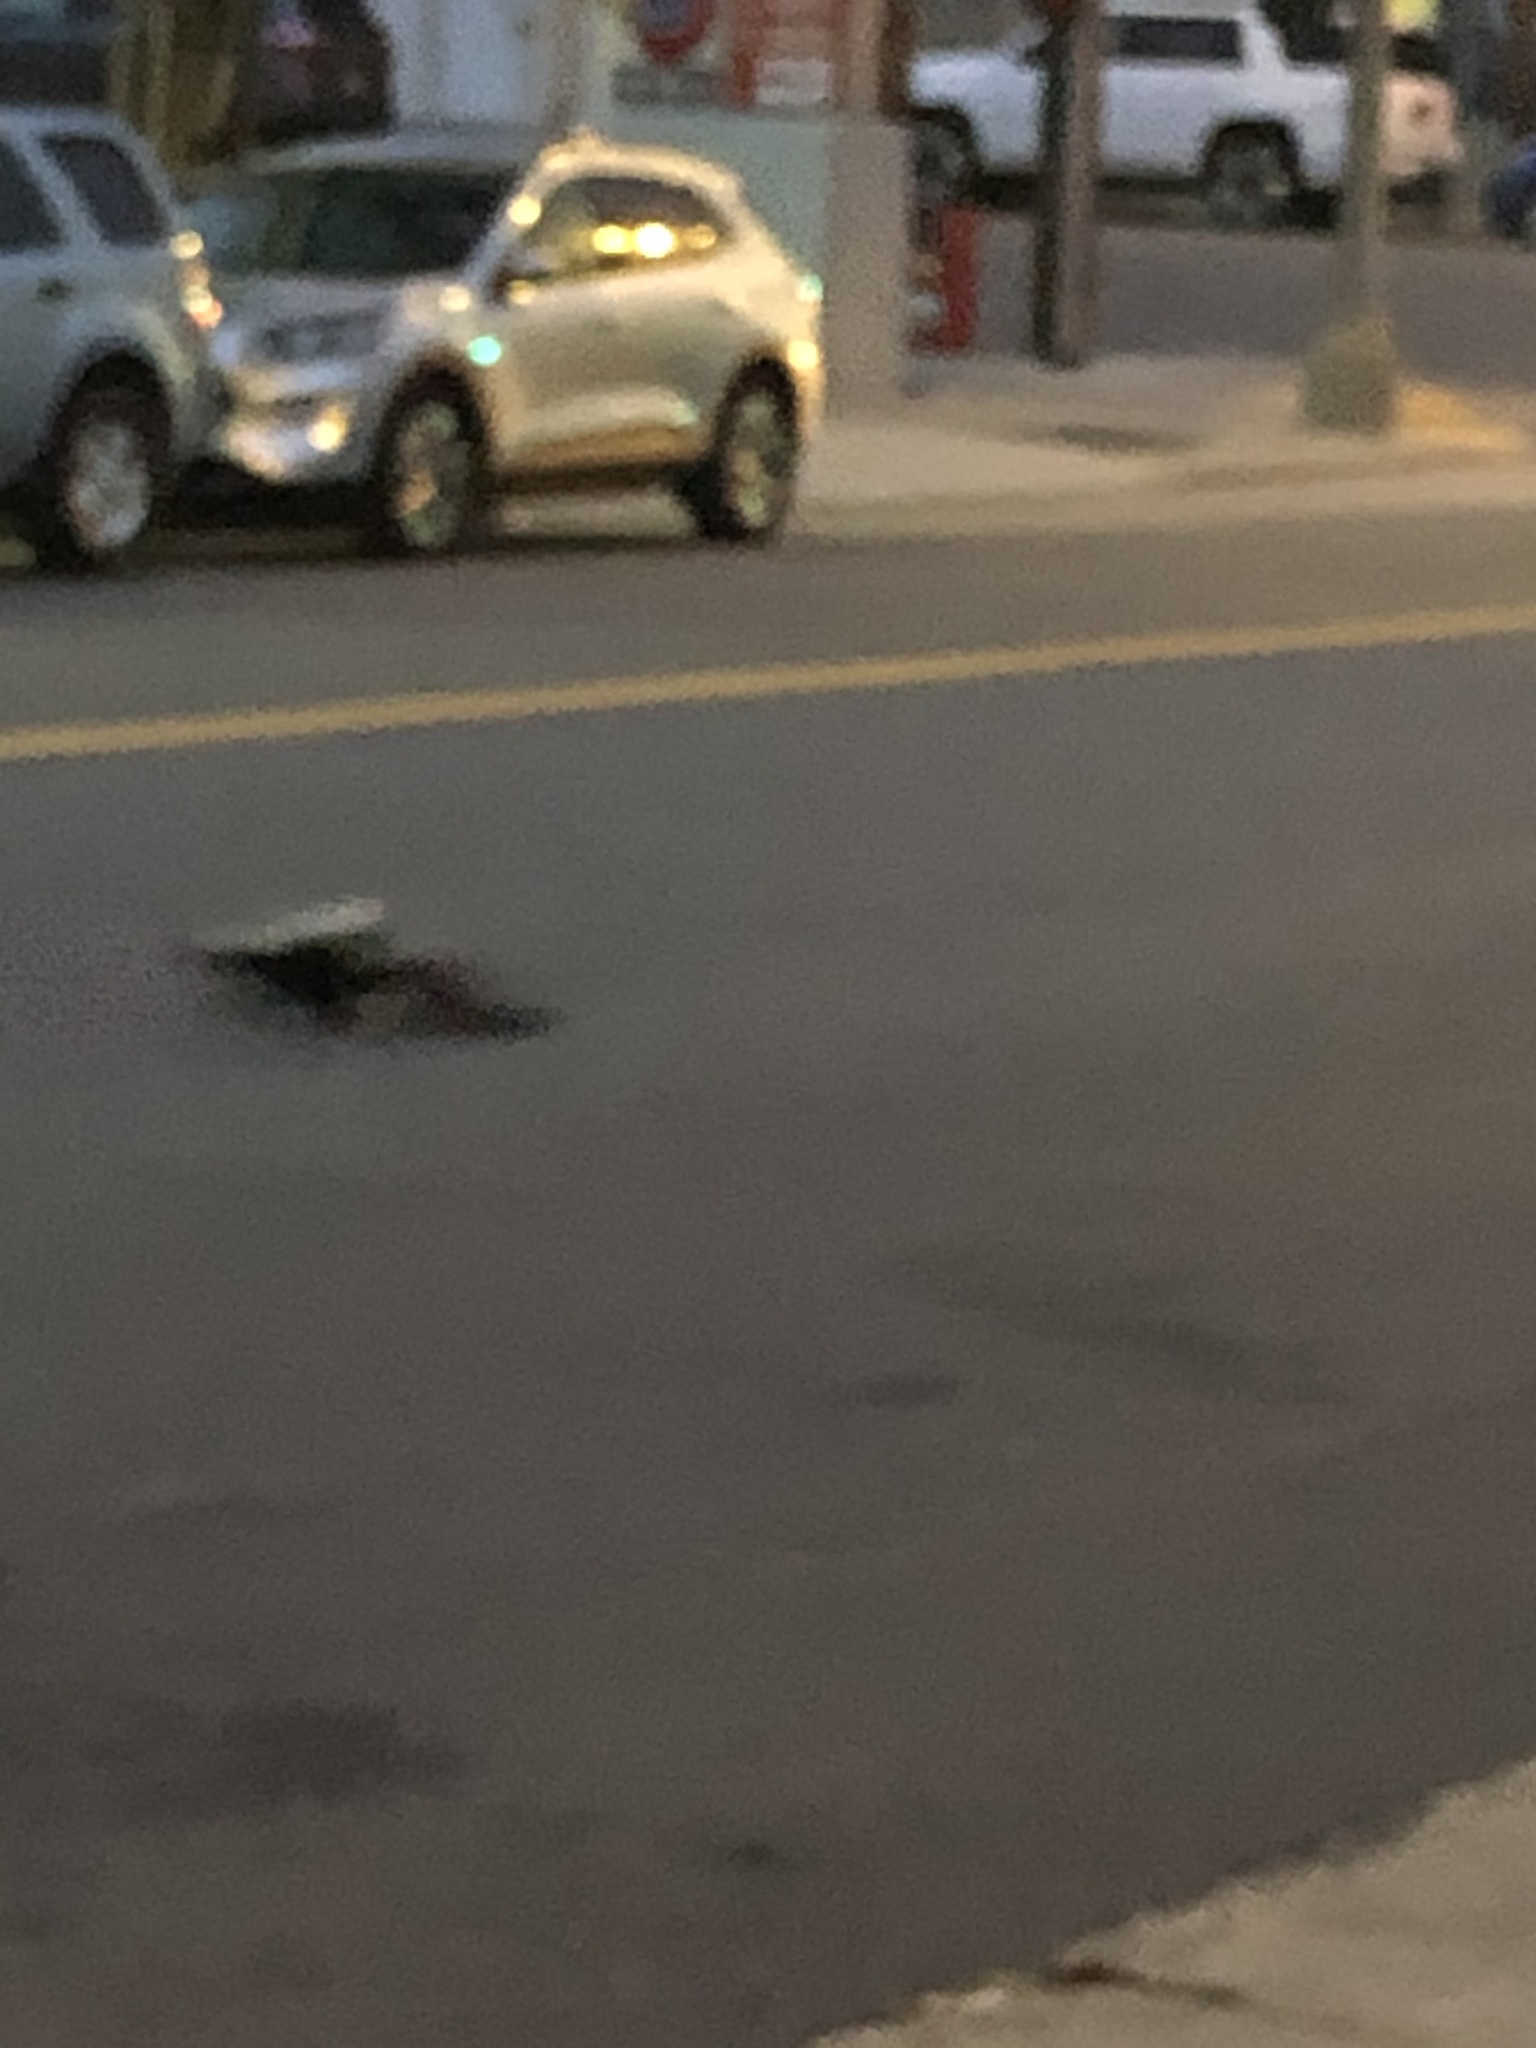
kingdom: Animalia
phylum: Chordata
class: Mammalia
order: Carnivora
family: Mephitidae
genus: Mephitis
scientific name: Mephitis mephitis
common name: Striped skunk
